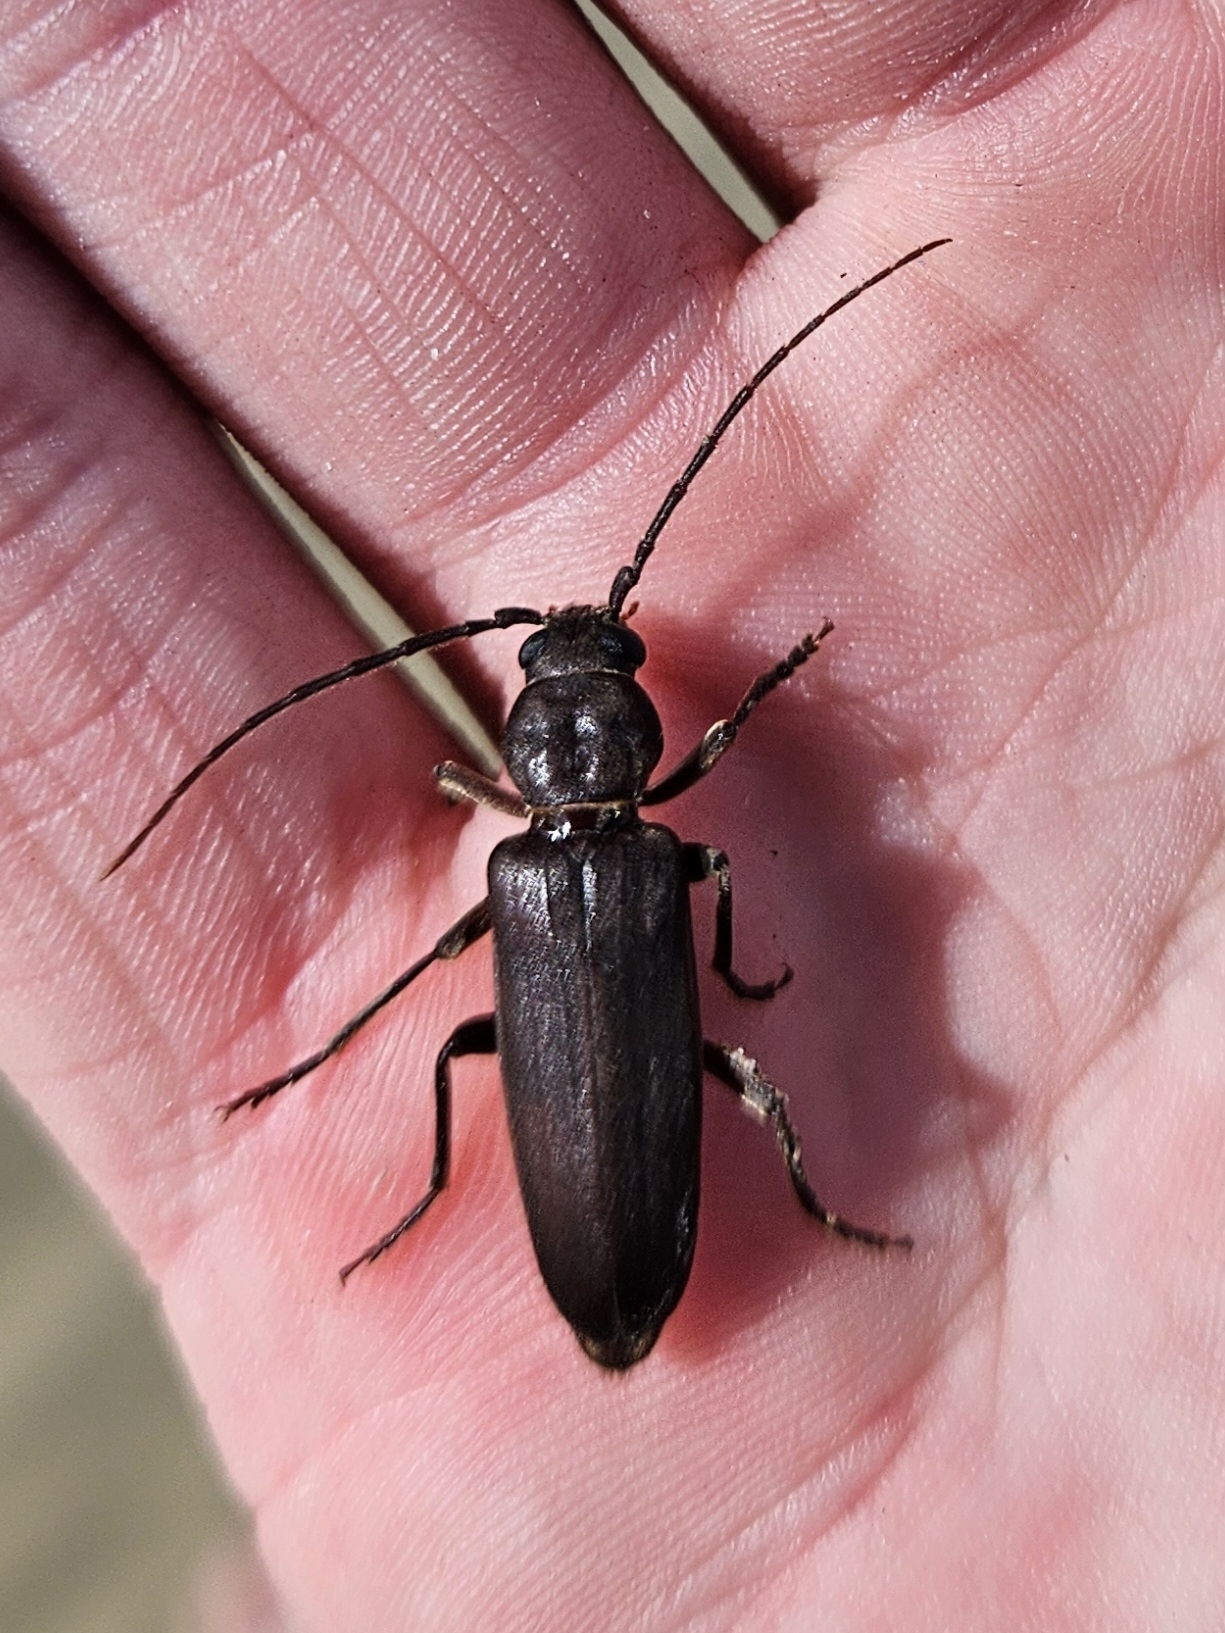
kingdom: Animalia
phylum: Arthropoda
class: Insecta
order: Coleoptera
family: Cerambycidae
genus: Arhopalus
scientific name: Arhopalus ferus
